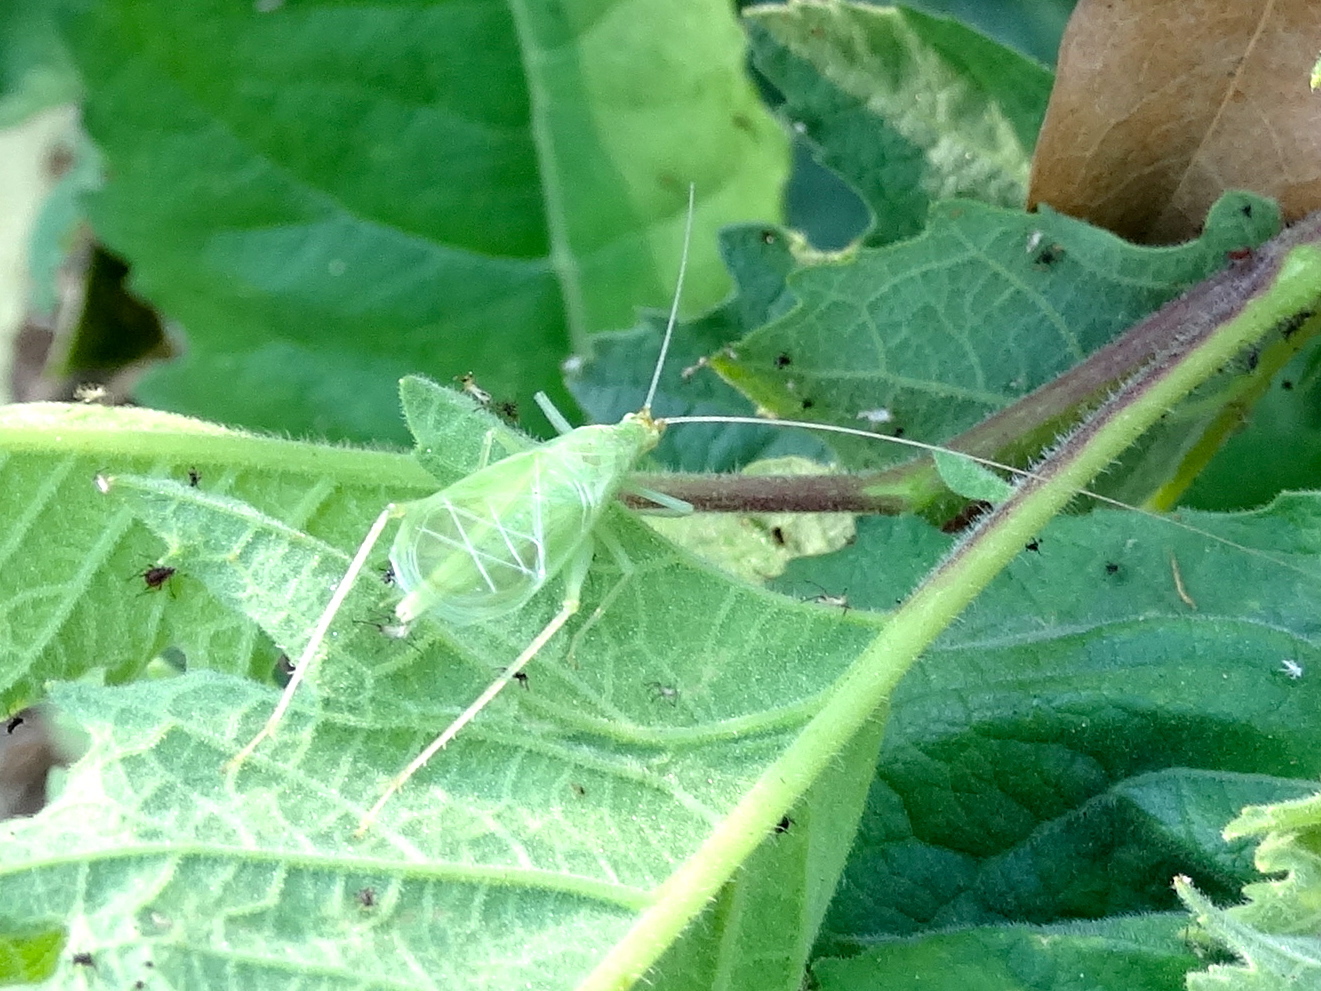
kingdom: Animalia
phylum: Arthropoda
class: Insecta
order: Orthoptera
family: Gryllidae
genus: Oecanthus
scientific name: Oecanthus
